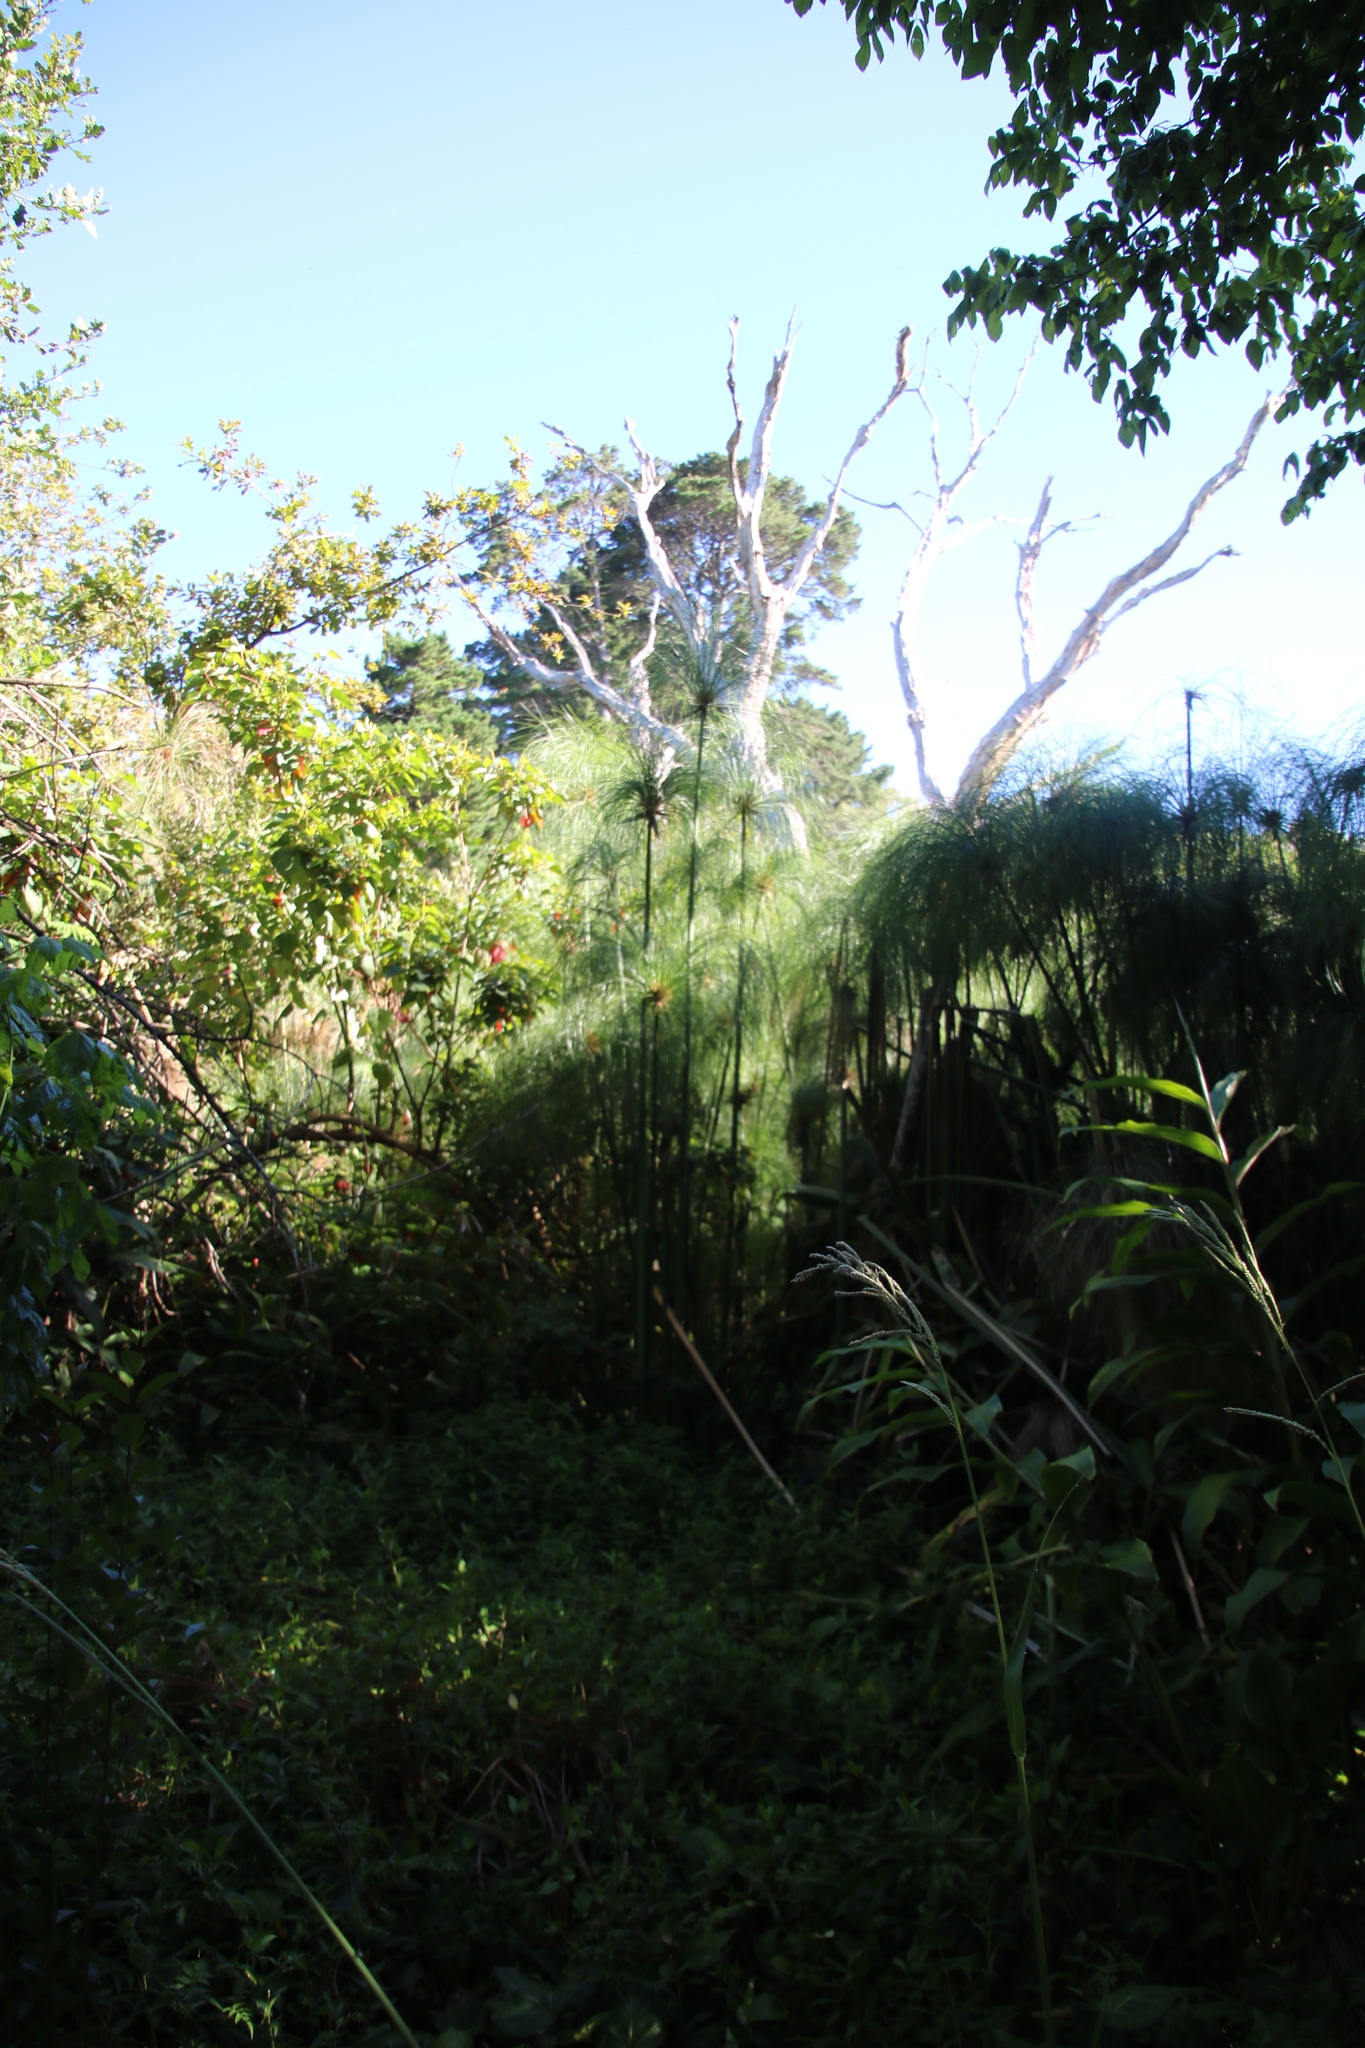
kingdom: Plantae
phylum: Tracheophyta
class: Liliopsida
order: Poales
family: Cyperaceae
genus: Cyperus
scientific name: Cyperus papyrus
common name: Papyrus
